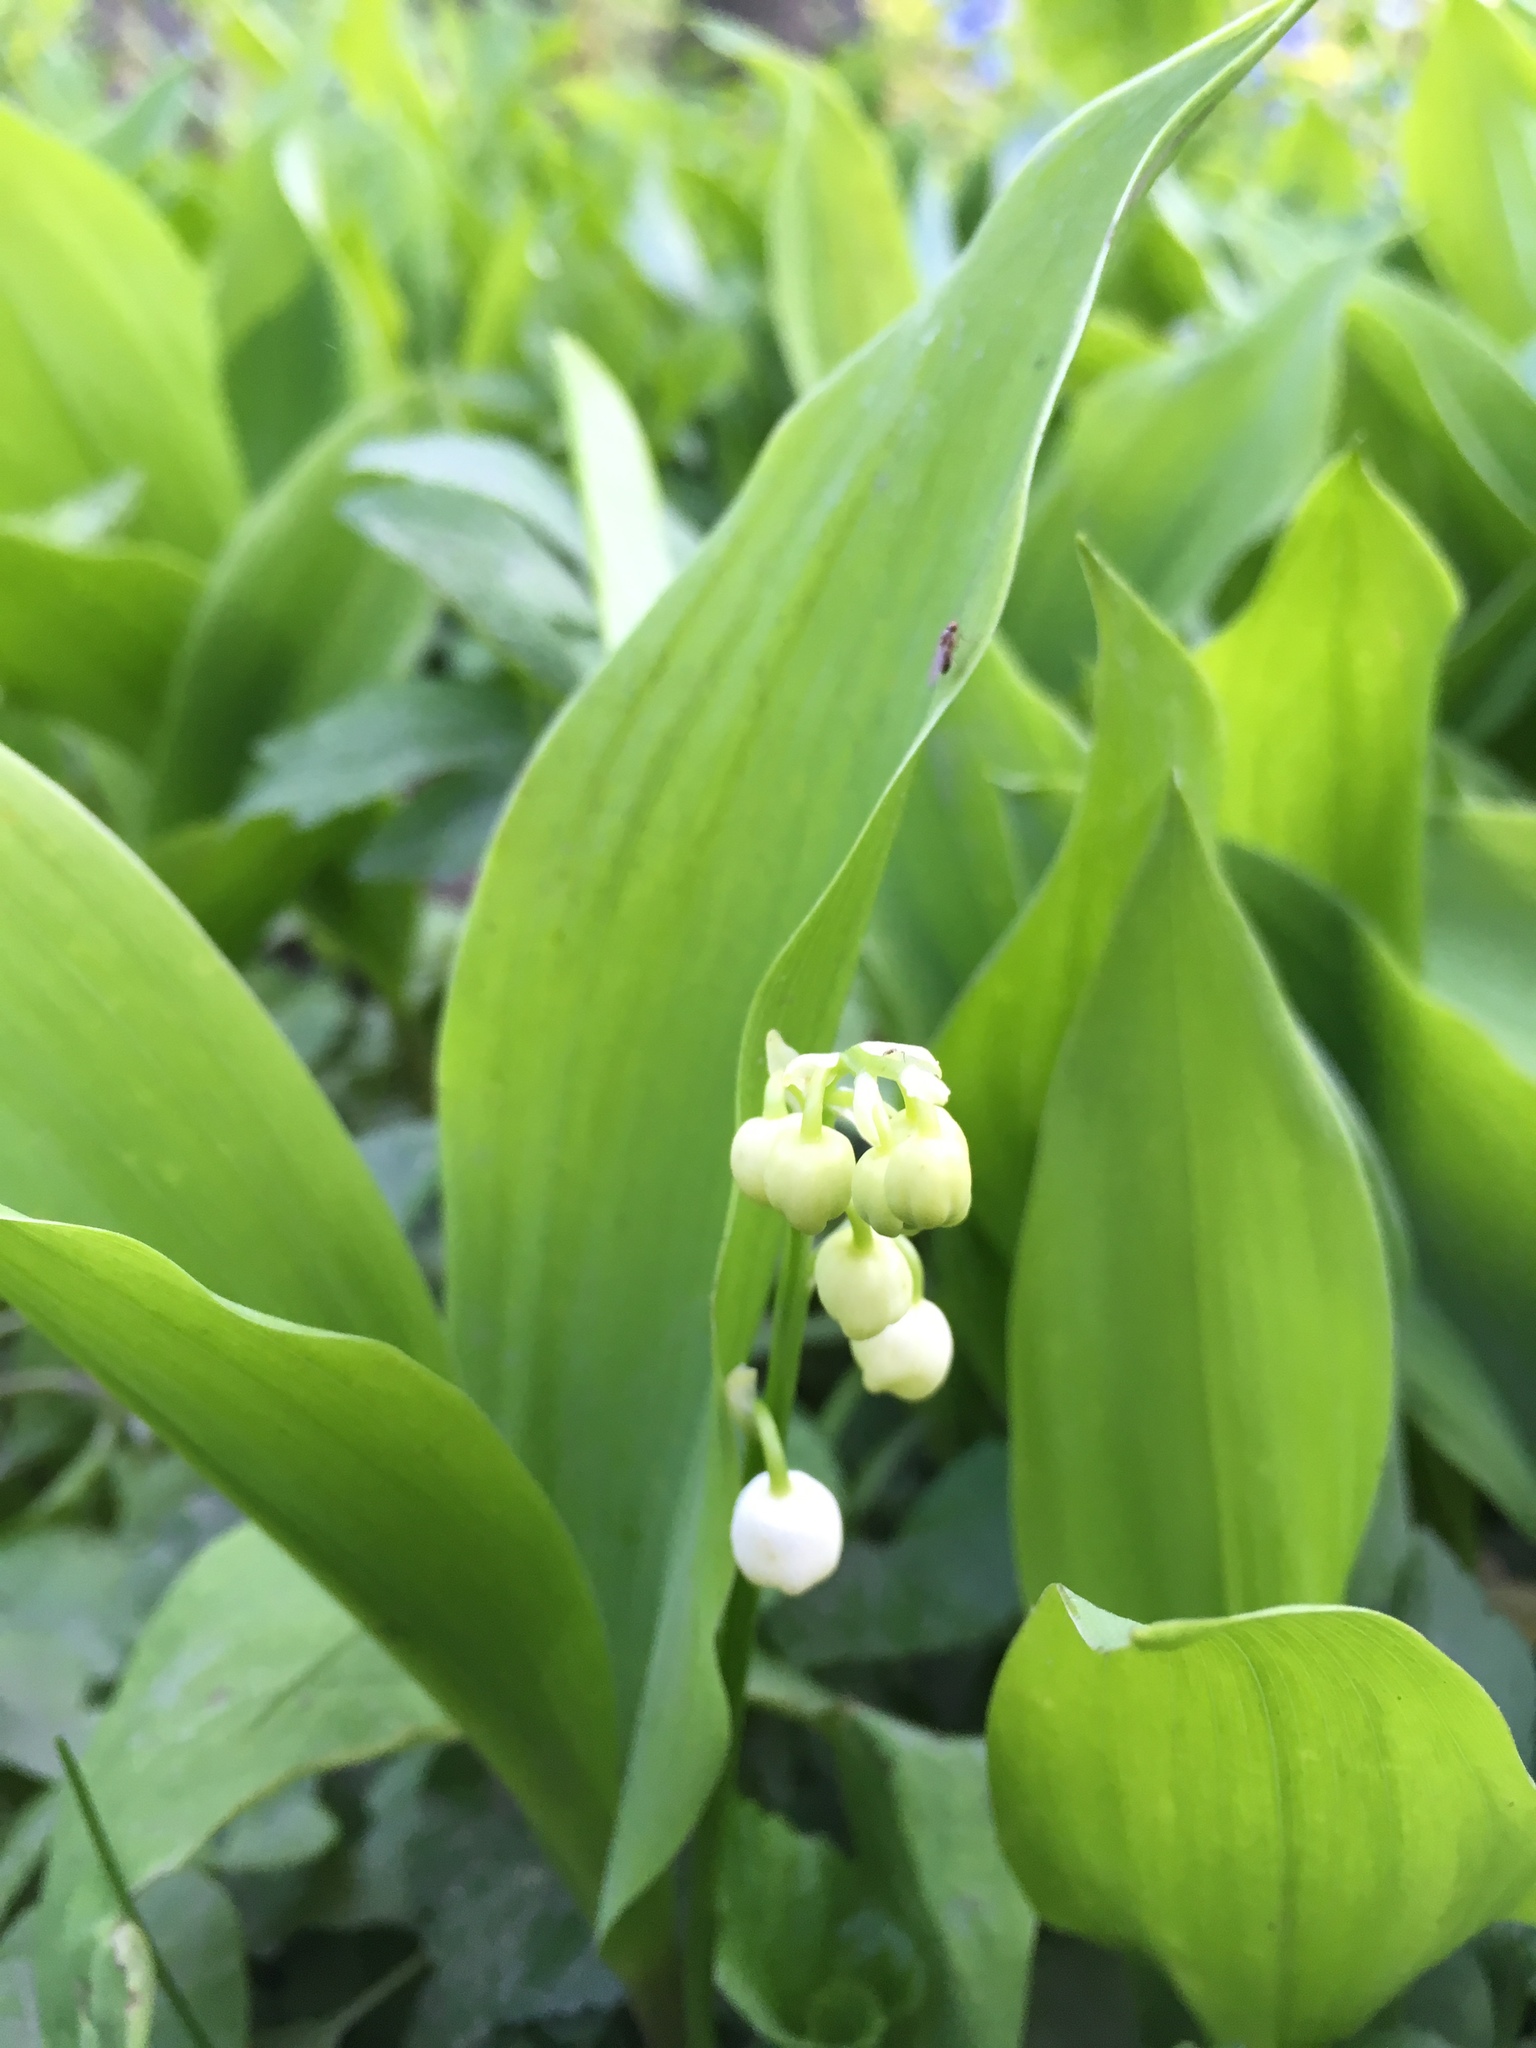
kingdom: Plantae
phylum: Tracheophyta
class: Liliopsida
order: Asparagales
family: Asparagaceae
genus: Convallaria
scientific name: Convallaria majalis
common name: Lily-of-the-valley
